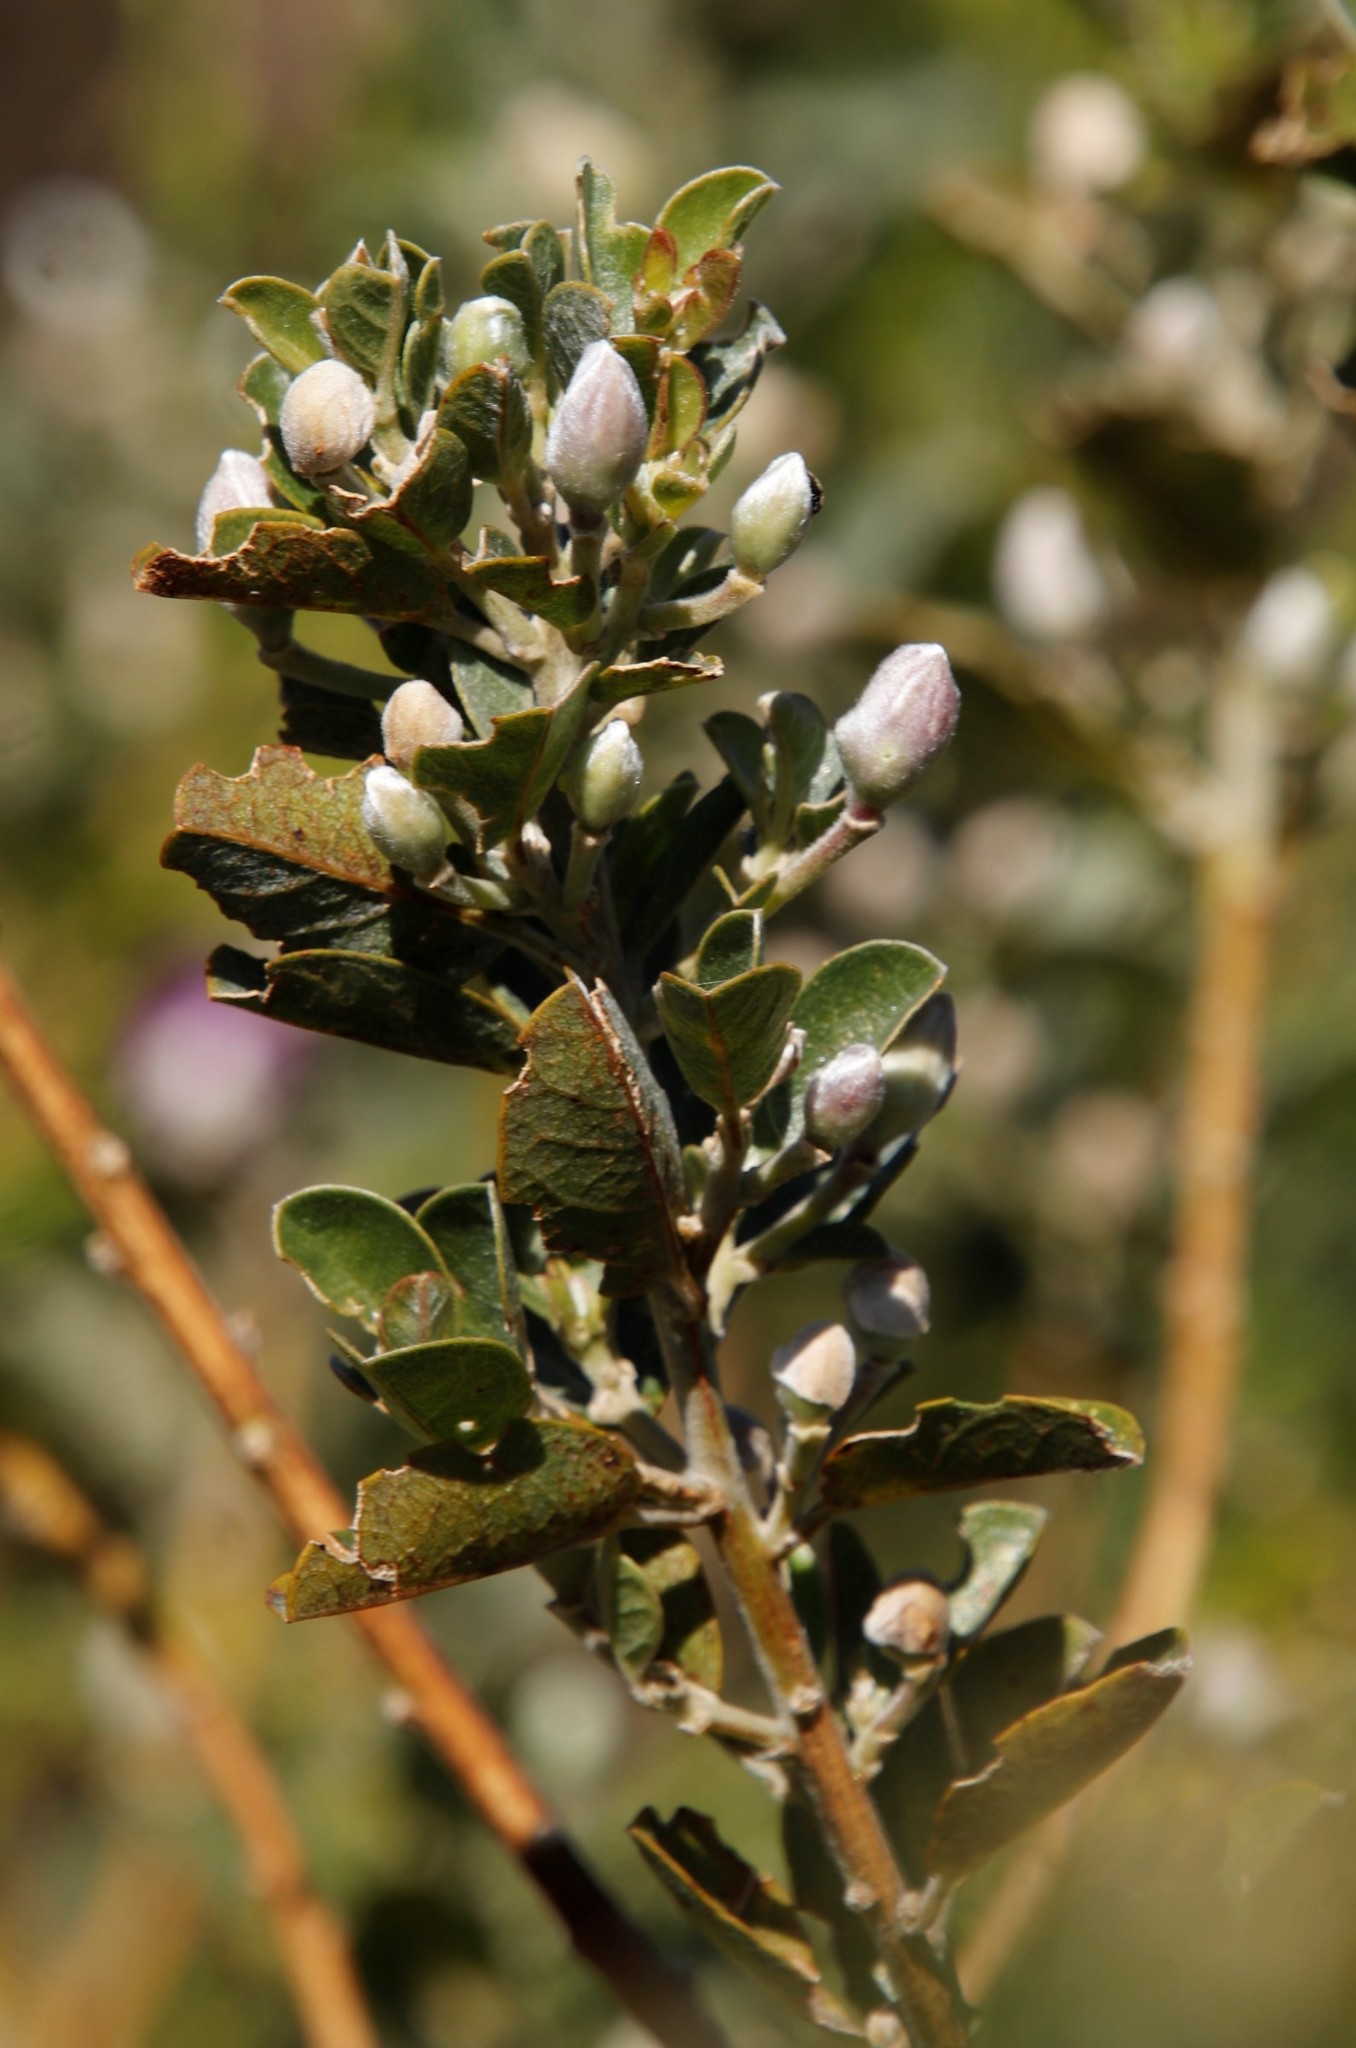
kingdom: Plantae
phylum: Tracheophyta
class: Magnoliopsida
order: Fabales
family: Fabaceae
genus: Podalyria
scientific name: Podalyria calyptrata
